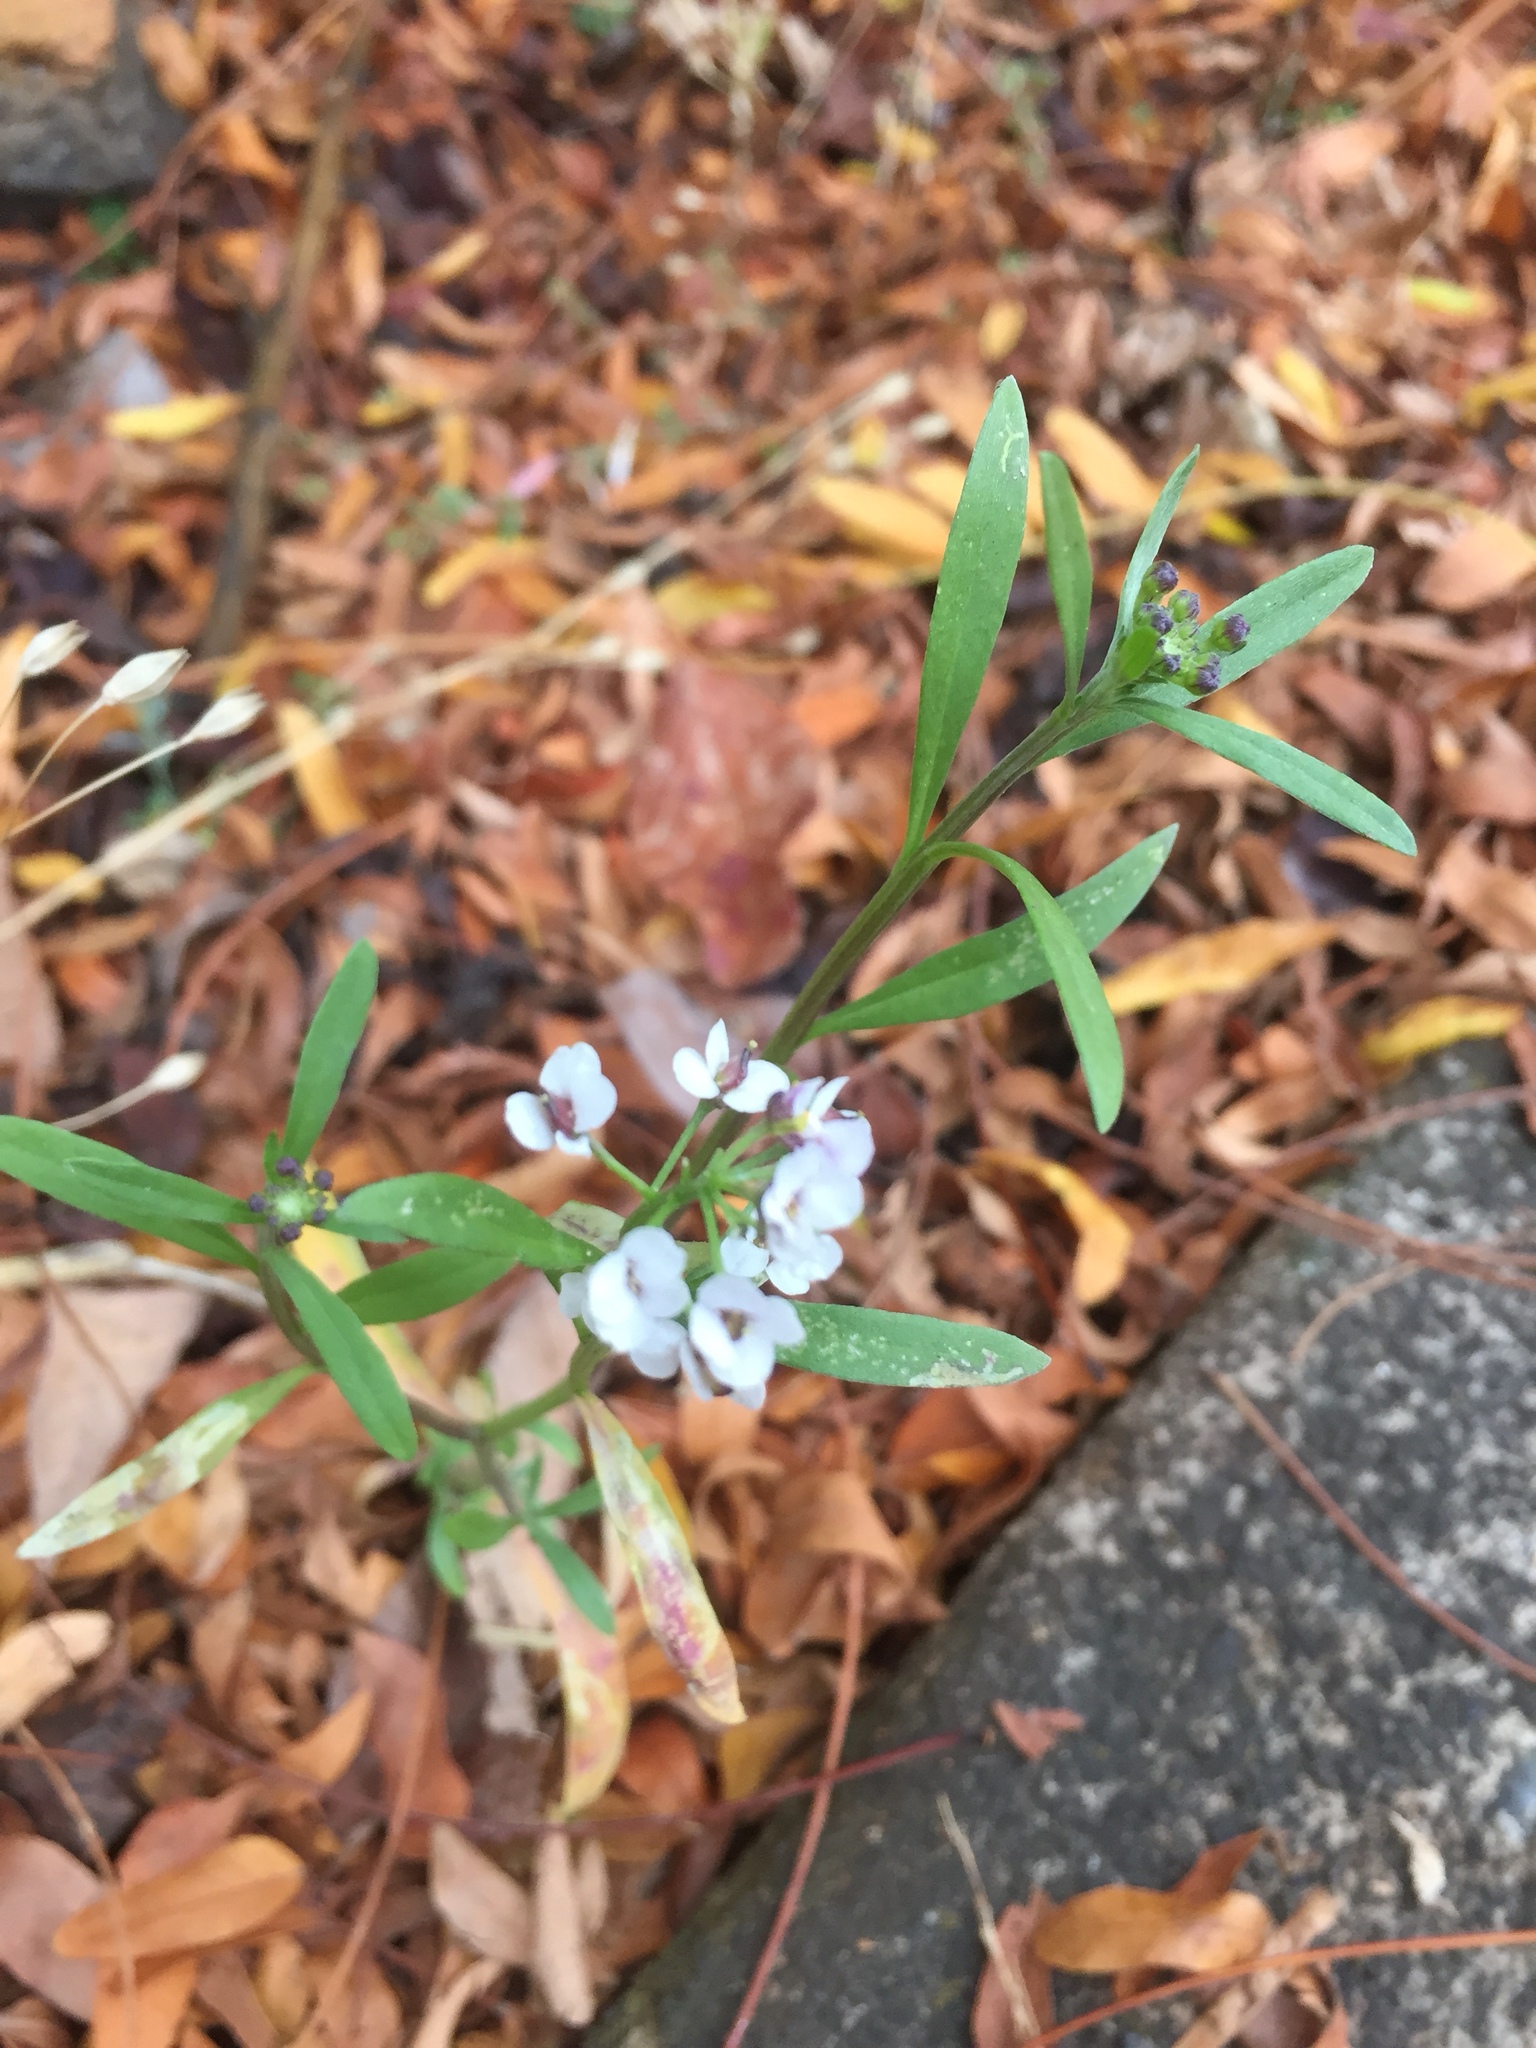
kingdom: Plantae
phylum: Tracheophyta
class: Magnoliopsida
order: Brassicales
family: Brassicaceae
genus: Lobularia
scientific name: Lobularia maritima
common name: Sweet alison
